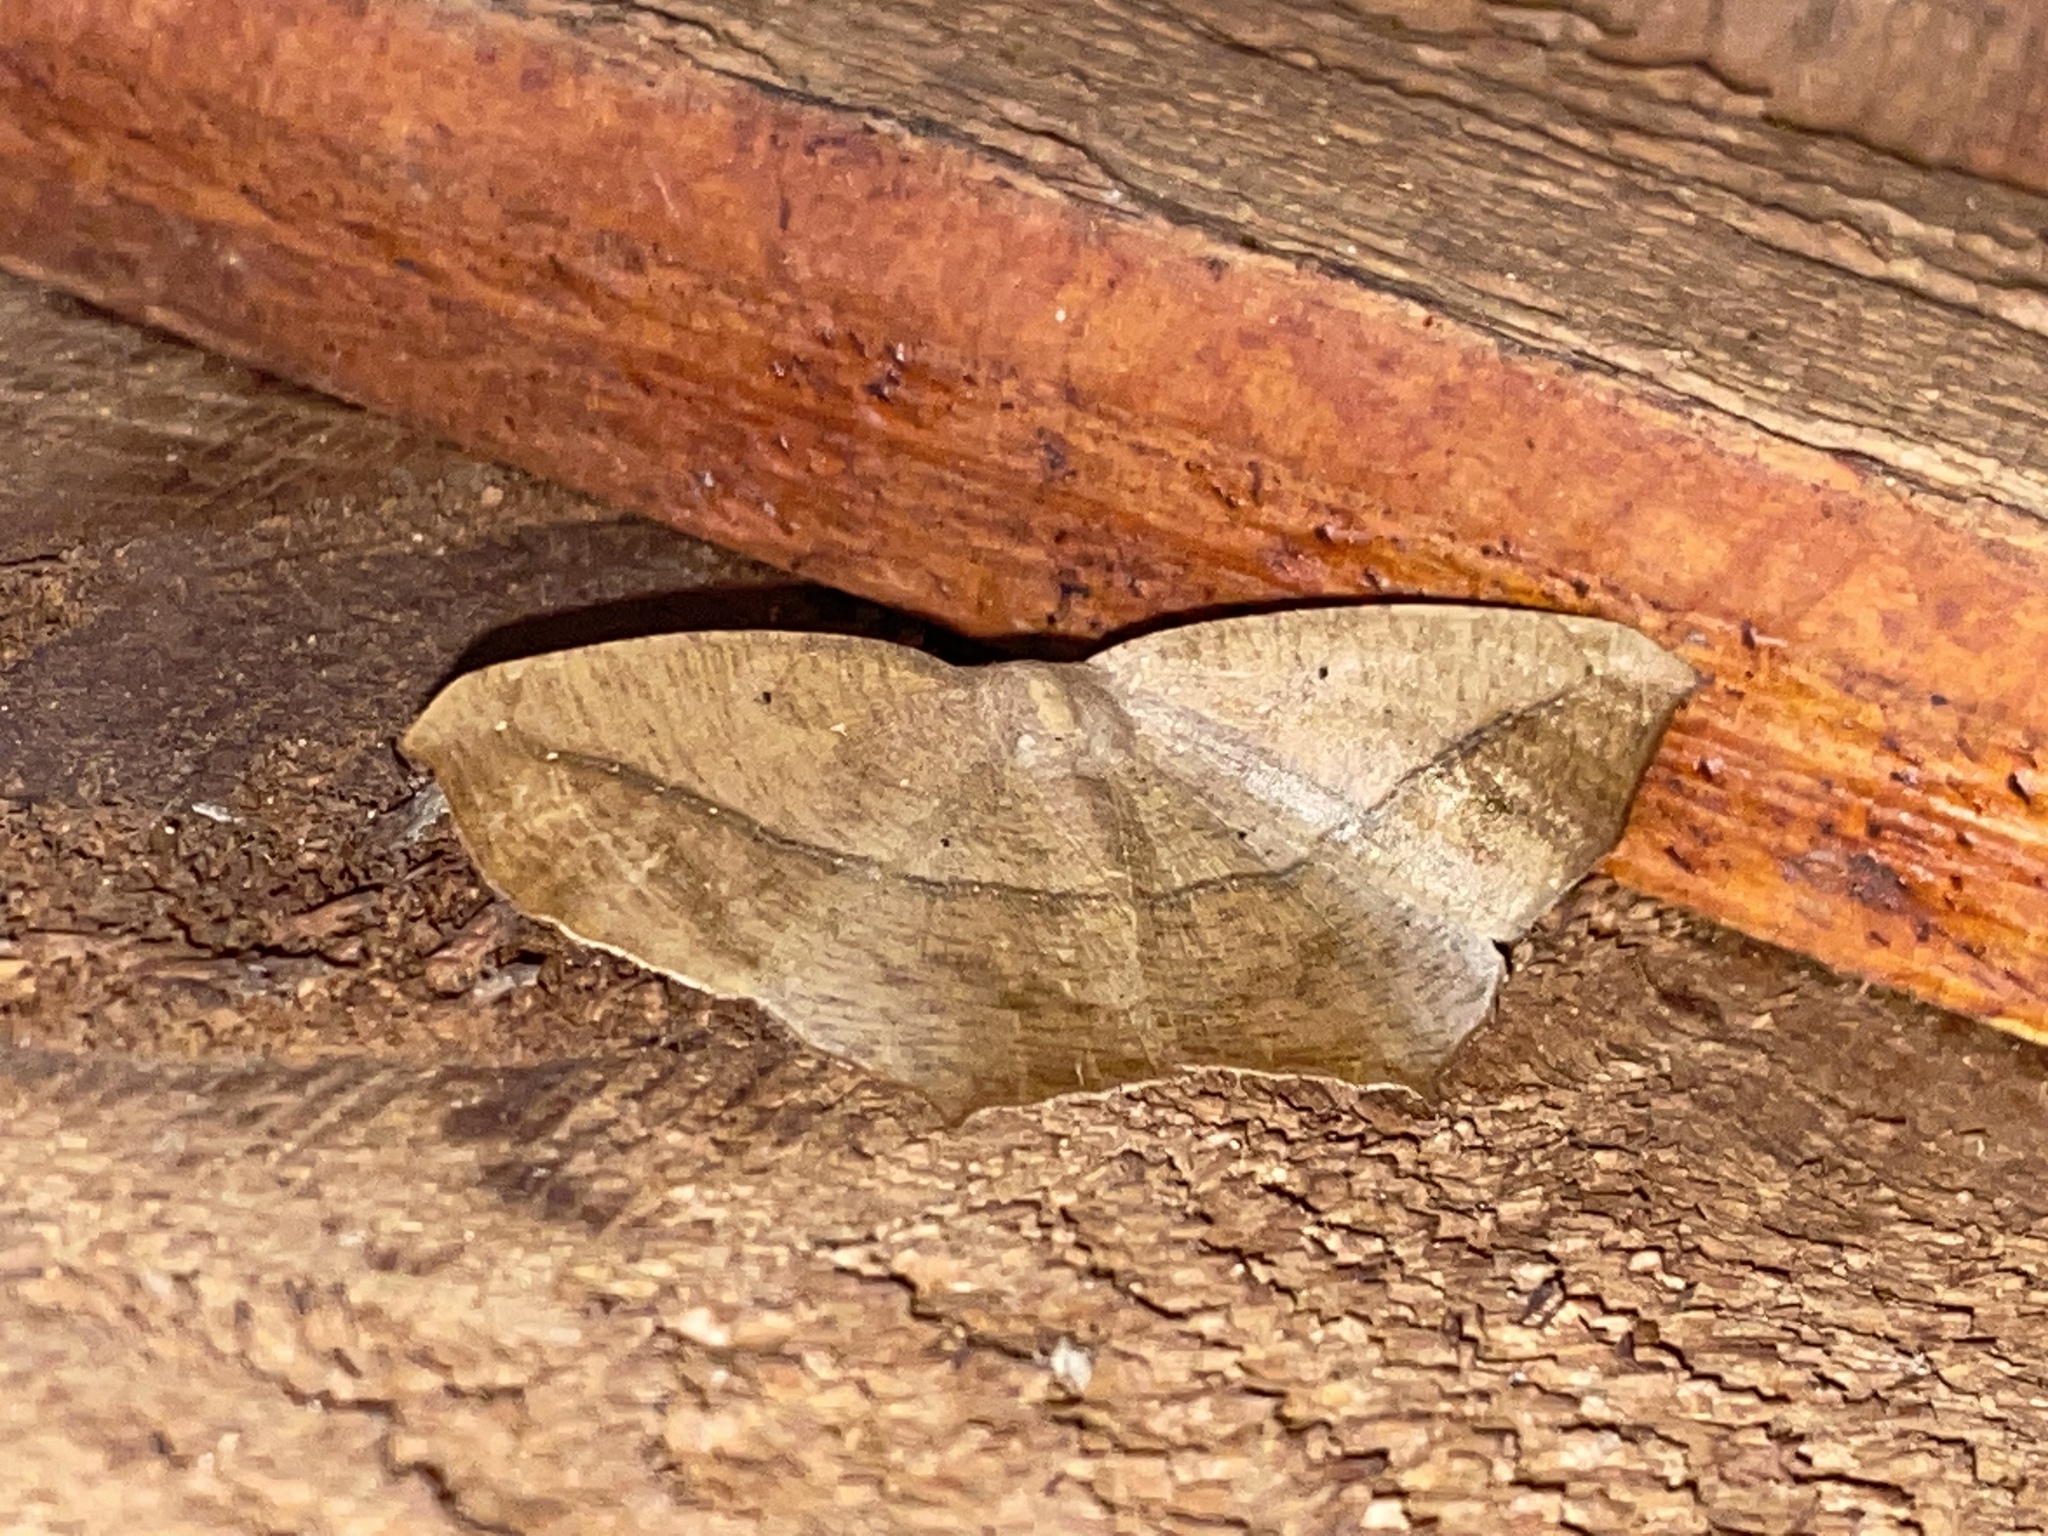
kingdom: Animalia
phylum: Arthropoda
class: Insecta
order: Lepidoptera
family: Geometridae
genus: Prochoerodes
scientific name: Prochoerodes lineola
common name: Large maple spanworm
